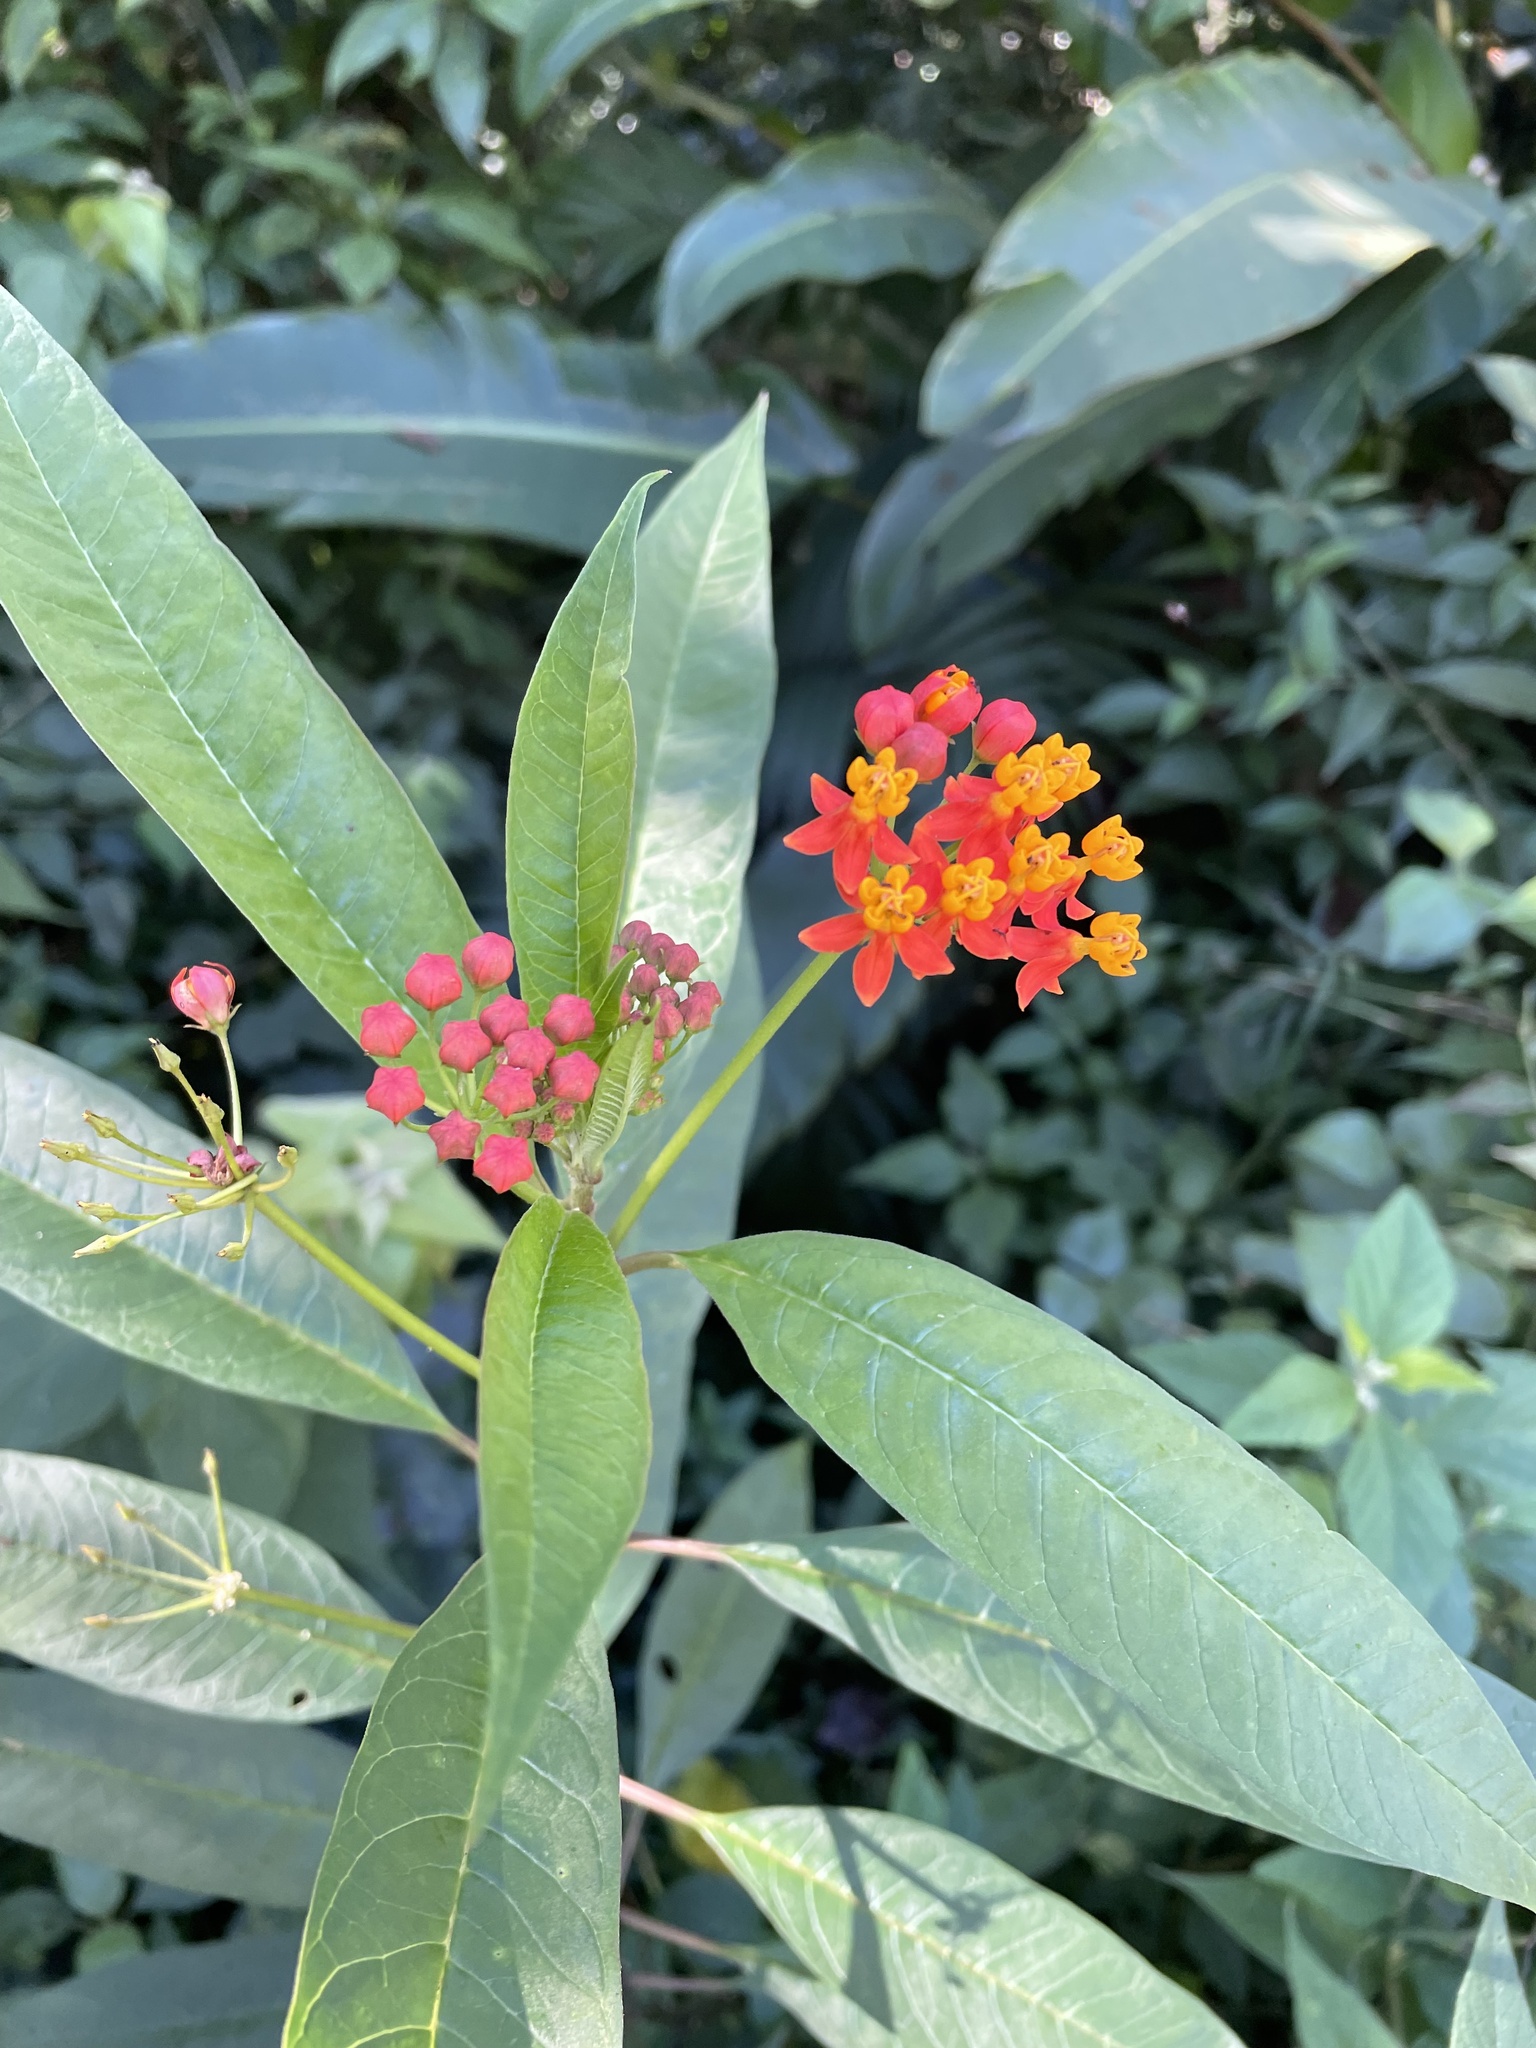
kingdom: Plantae
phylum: Tracheophyta
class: Magnoliopsida
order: Gentianales
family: Apocynaceae
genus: Asclepias
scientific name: Asclepias curassavica
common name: Bloodflower
